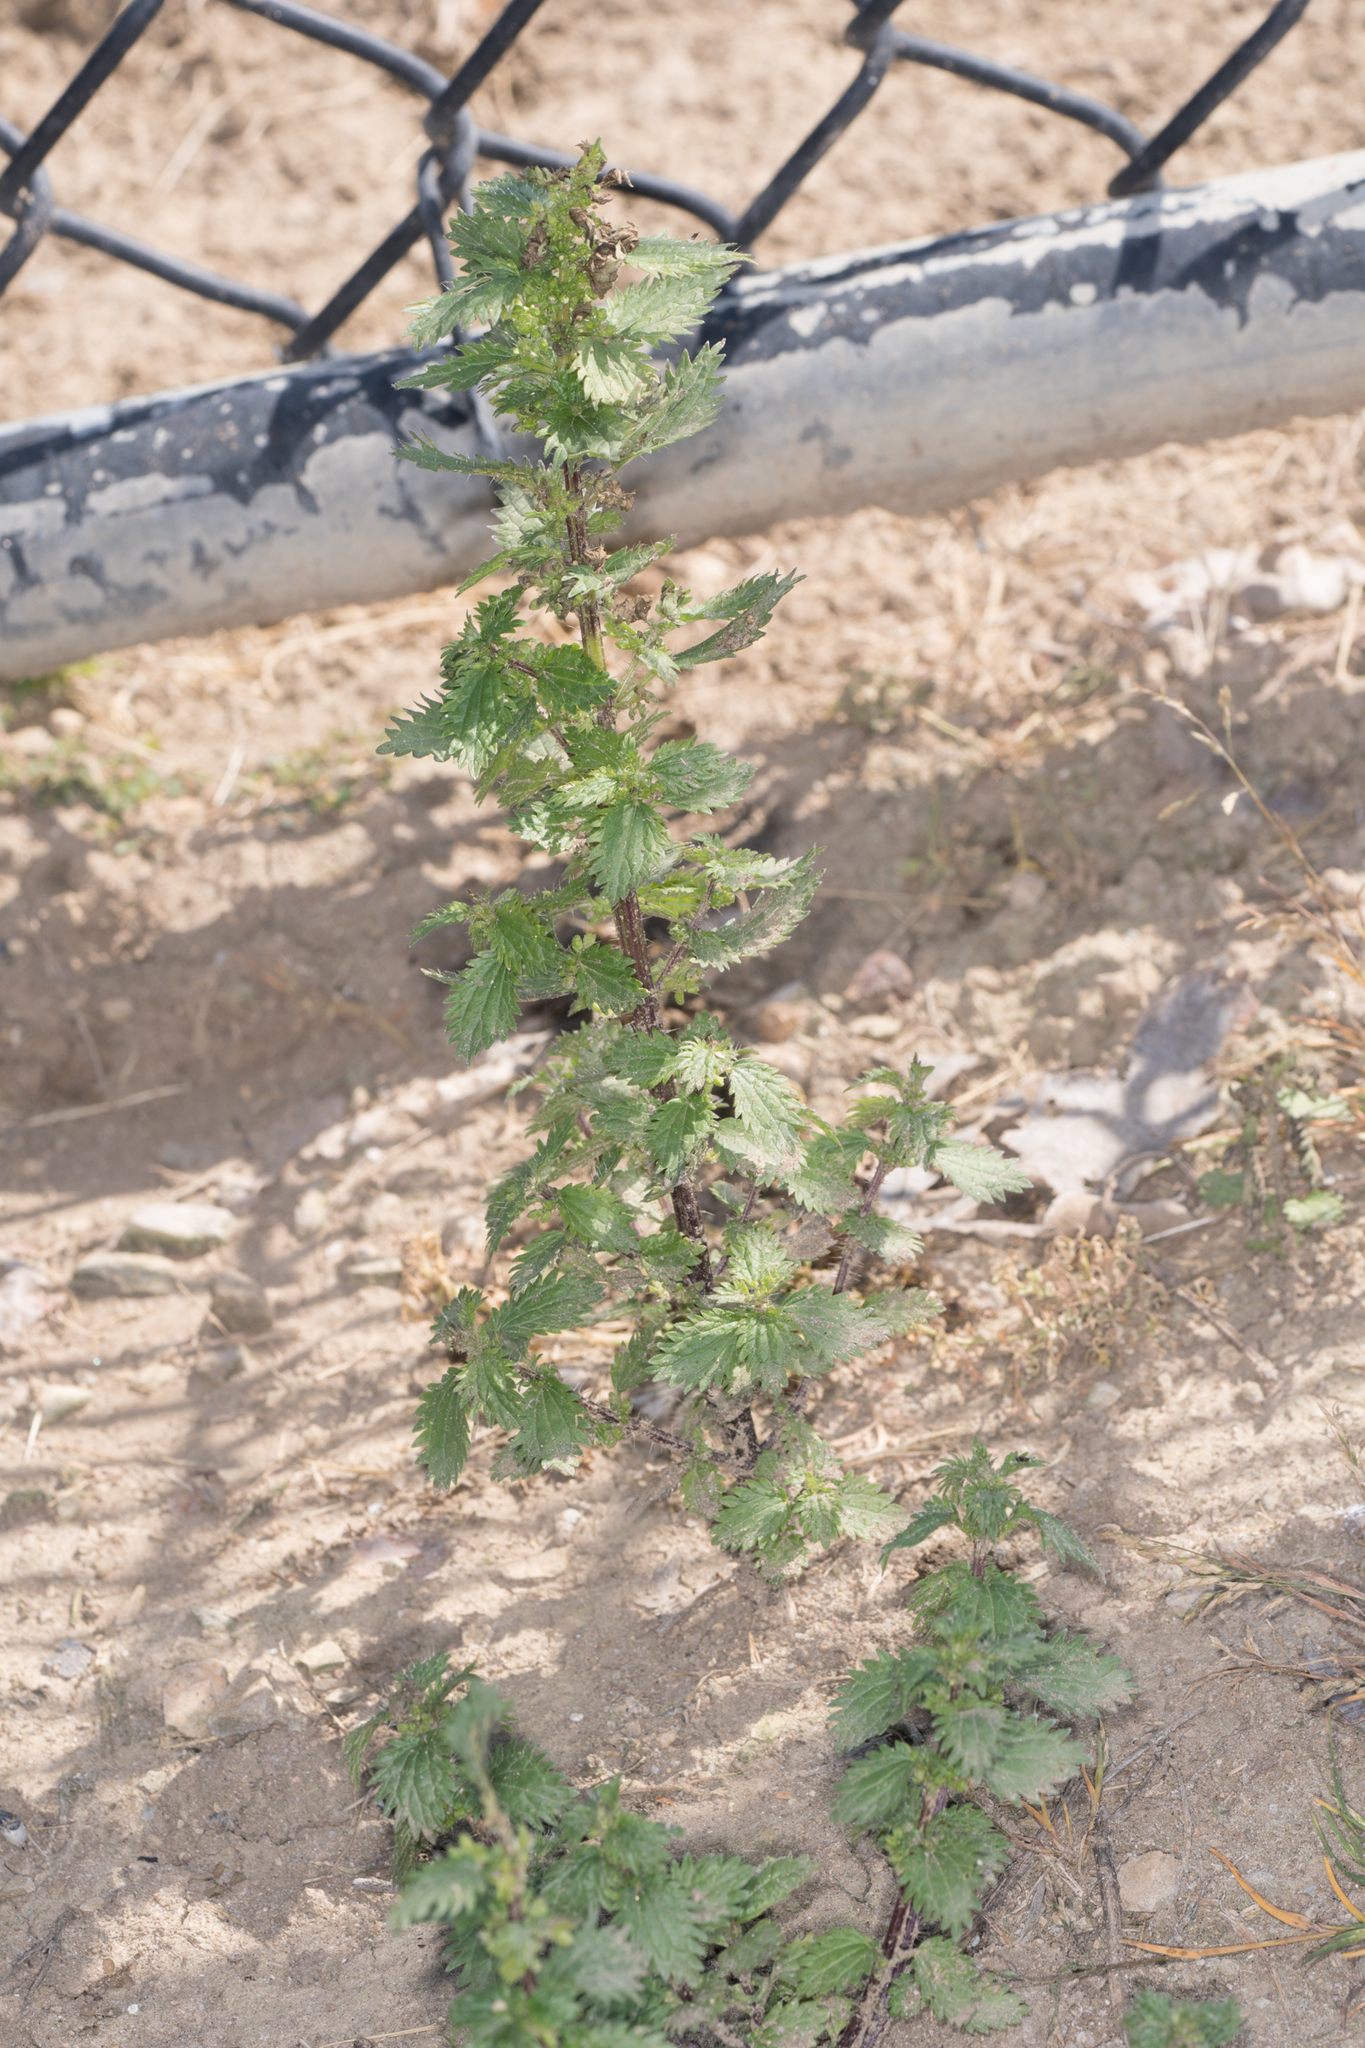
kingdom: Plantae
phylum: Tracheophyta
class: Magnoliopsida
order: Rosales
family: Urticaceae
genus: Urtica
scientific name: Urtica urens
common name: Dwarf nettle
